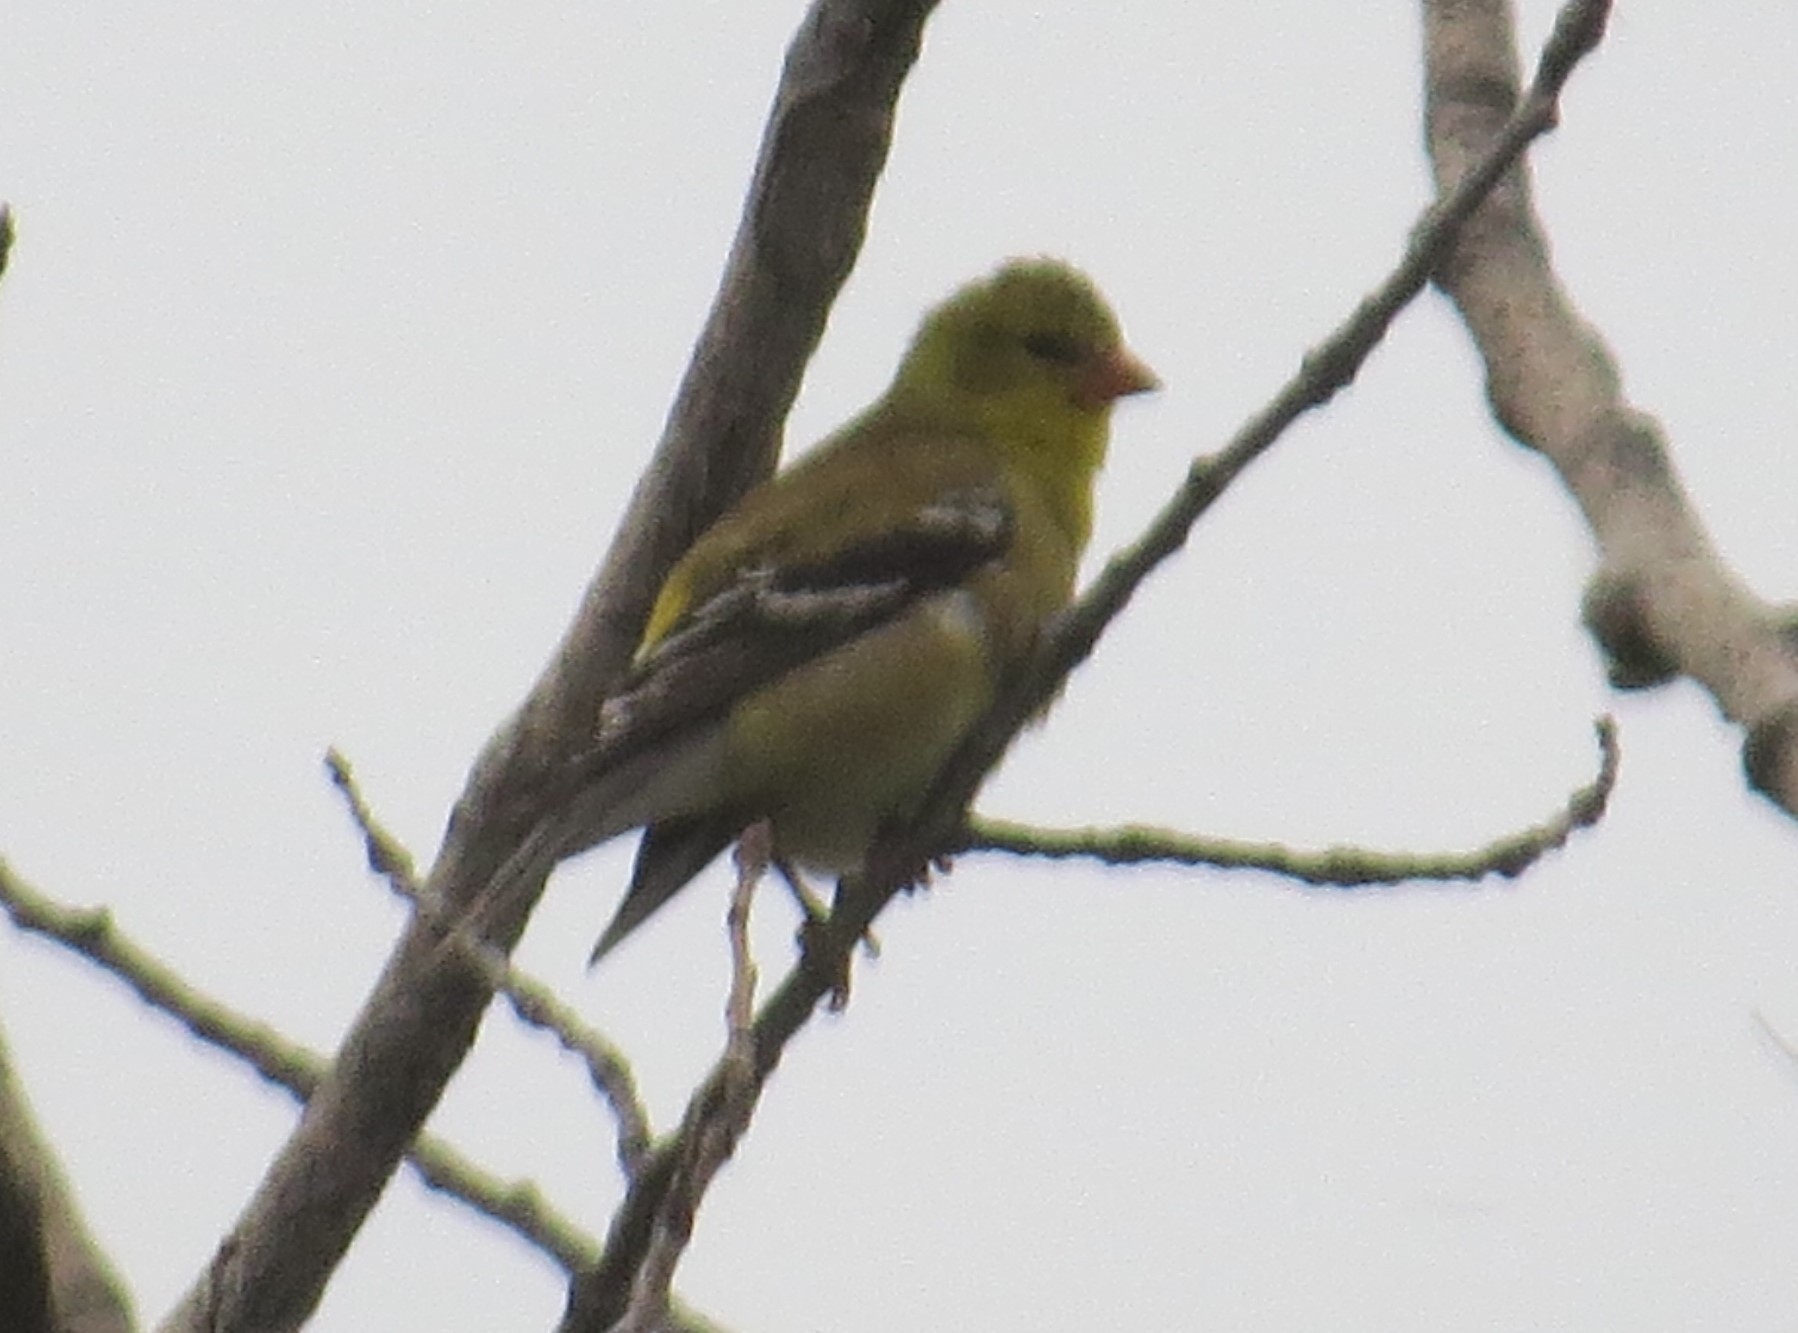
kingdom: Animalia
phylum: Chordata
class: Aves
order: Passeriformes
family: Fringillidae
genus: Spinus
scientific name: Spinus tristis
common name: American goldfinch
